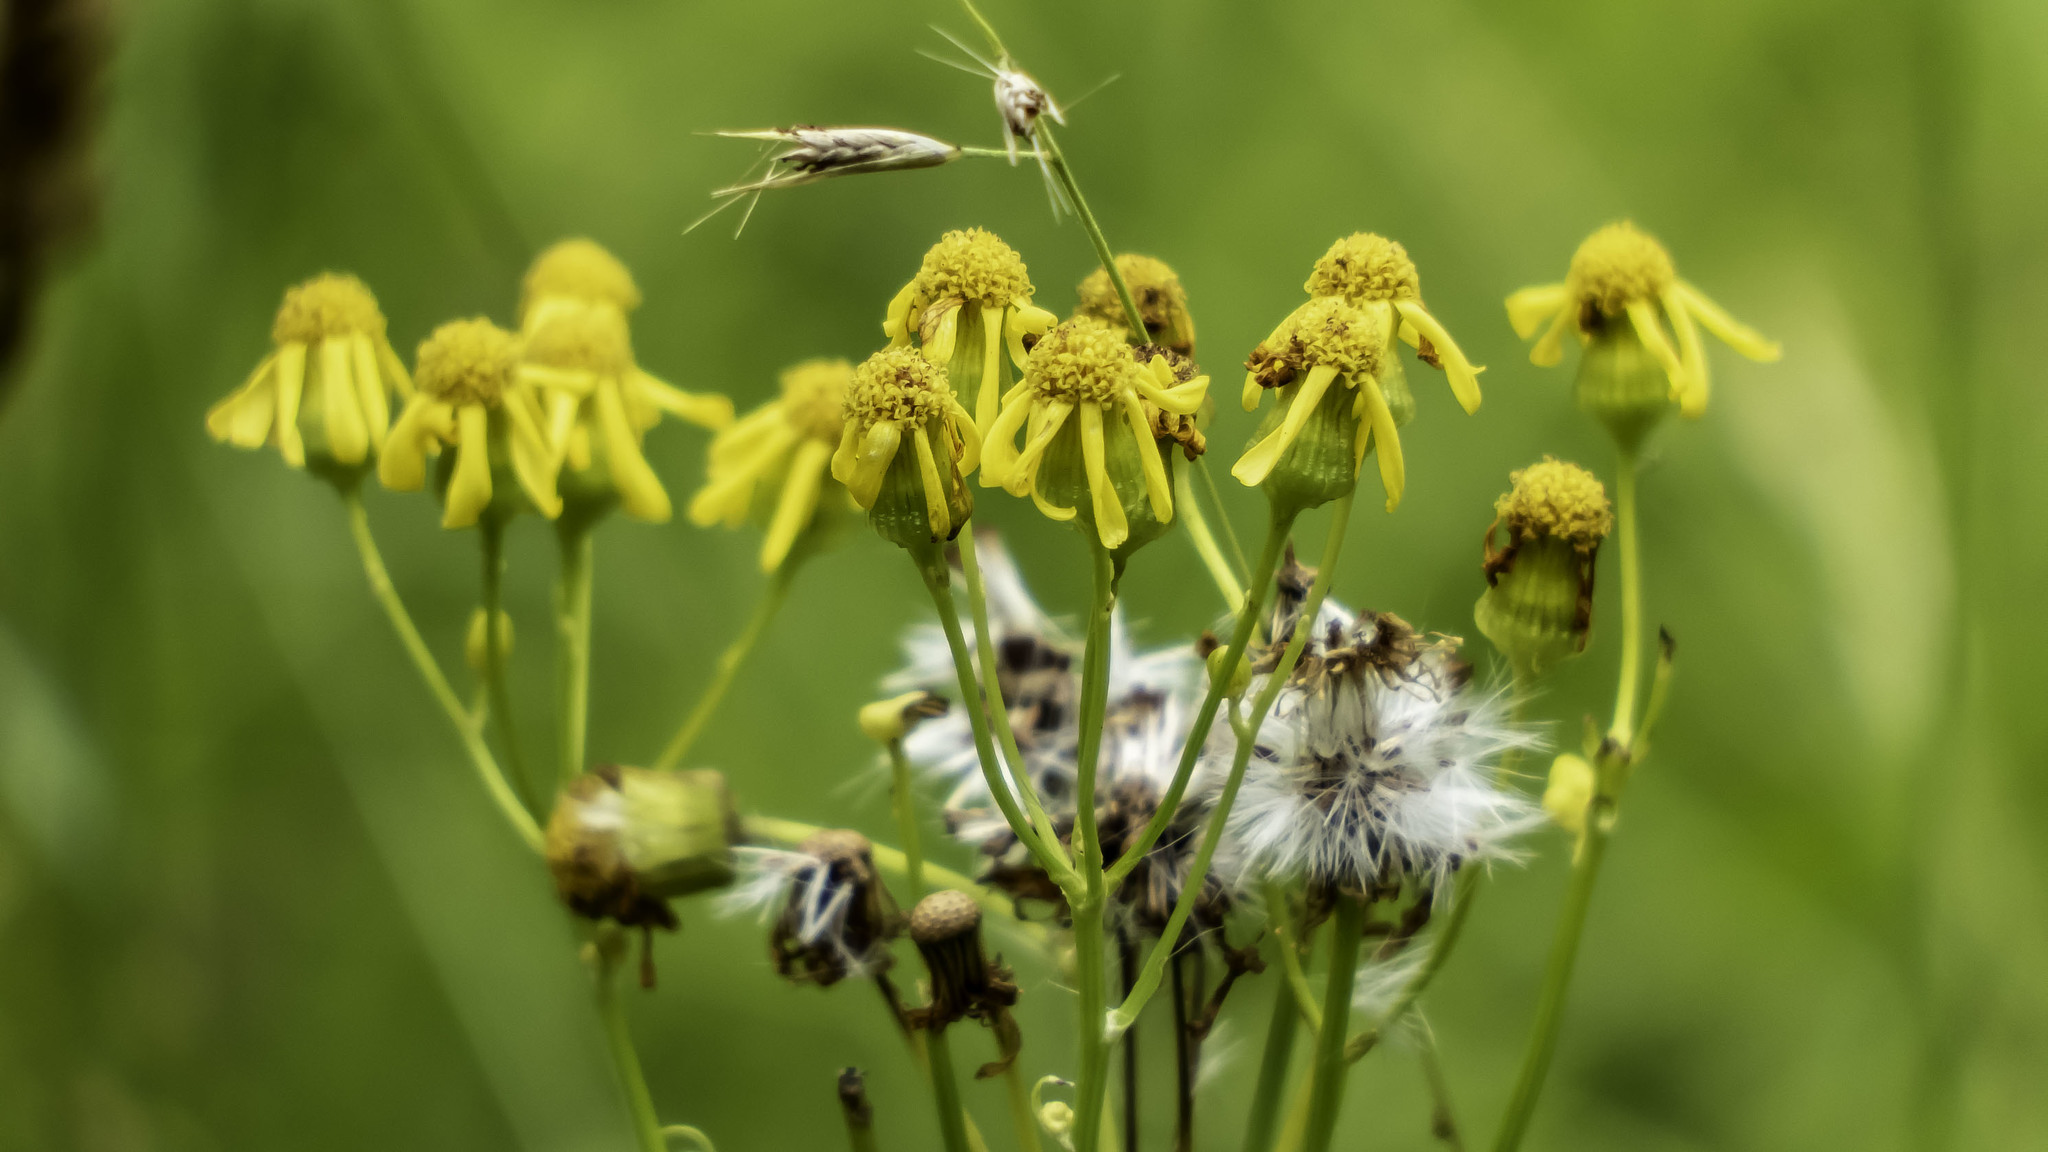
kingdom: Plantae
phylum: Tracheophyta
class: Magnoliopsida
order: Asterales
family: Asteraceae
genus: Packera
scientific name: Packera aurea
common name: Golden groundsel
